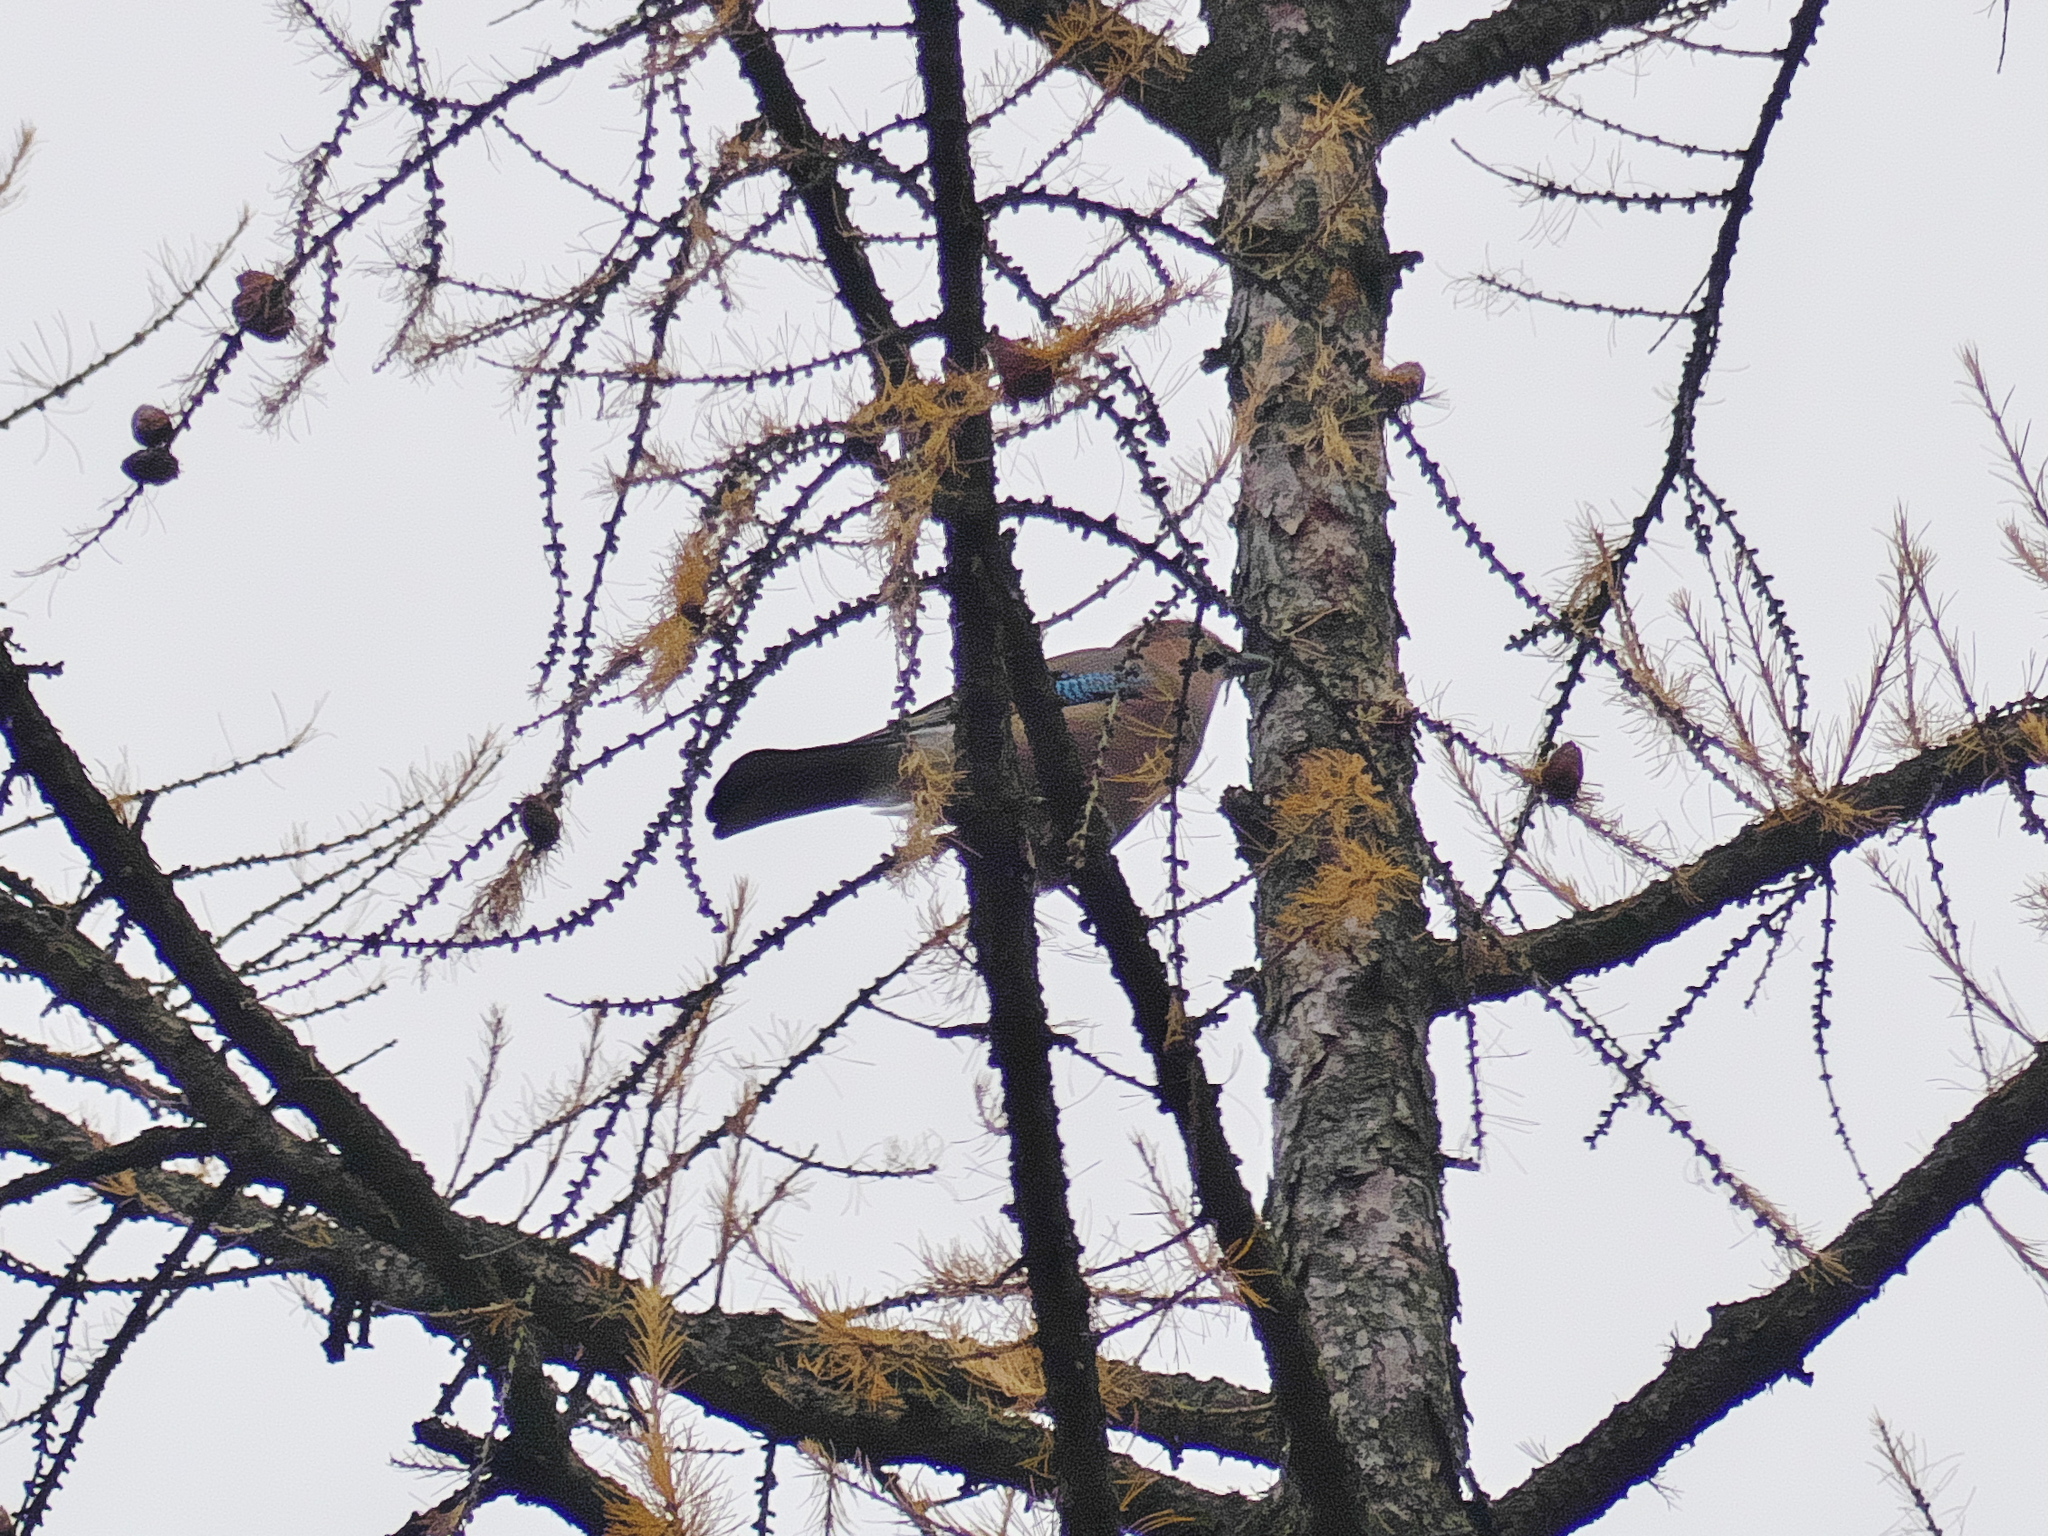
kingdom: Animalia
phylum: Chordata
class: Aves
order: Passeriformes
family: Corvidae
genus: Garrulus
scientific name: Garrulus glandarius
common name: Eurasian jay
